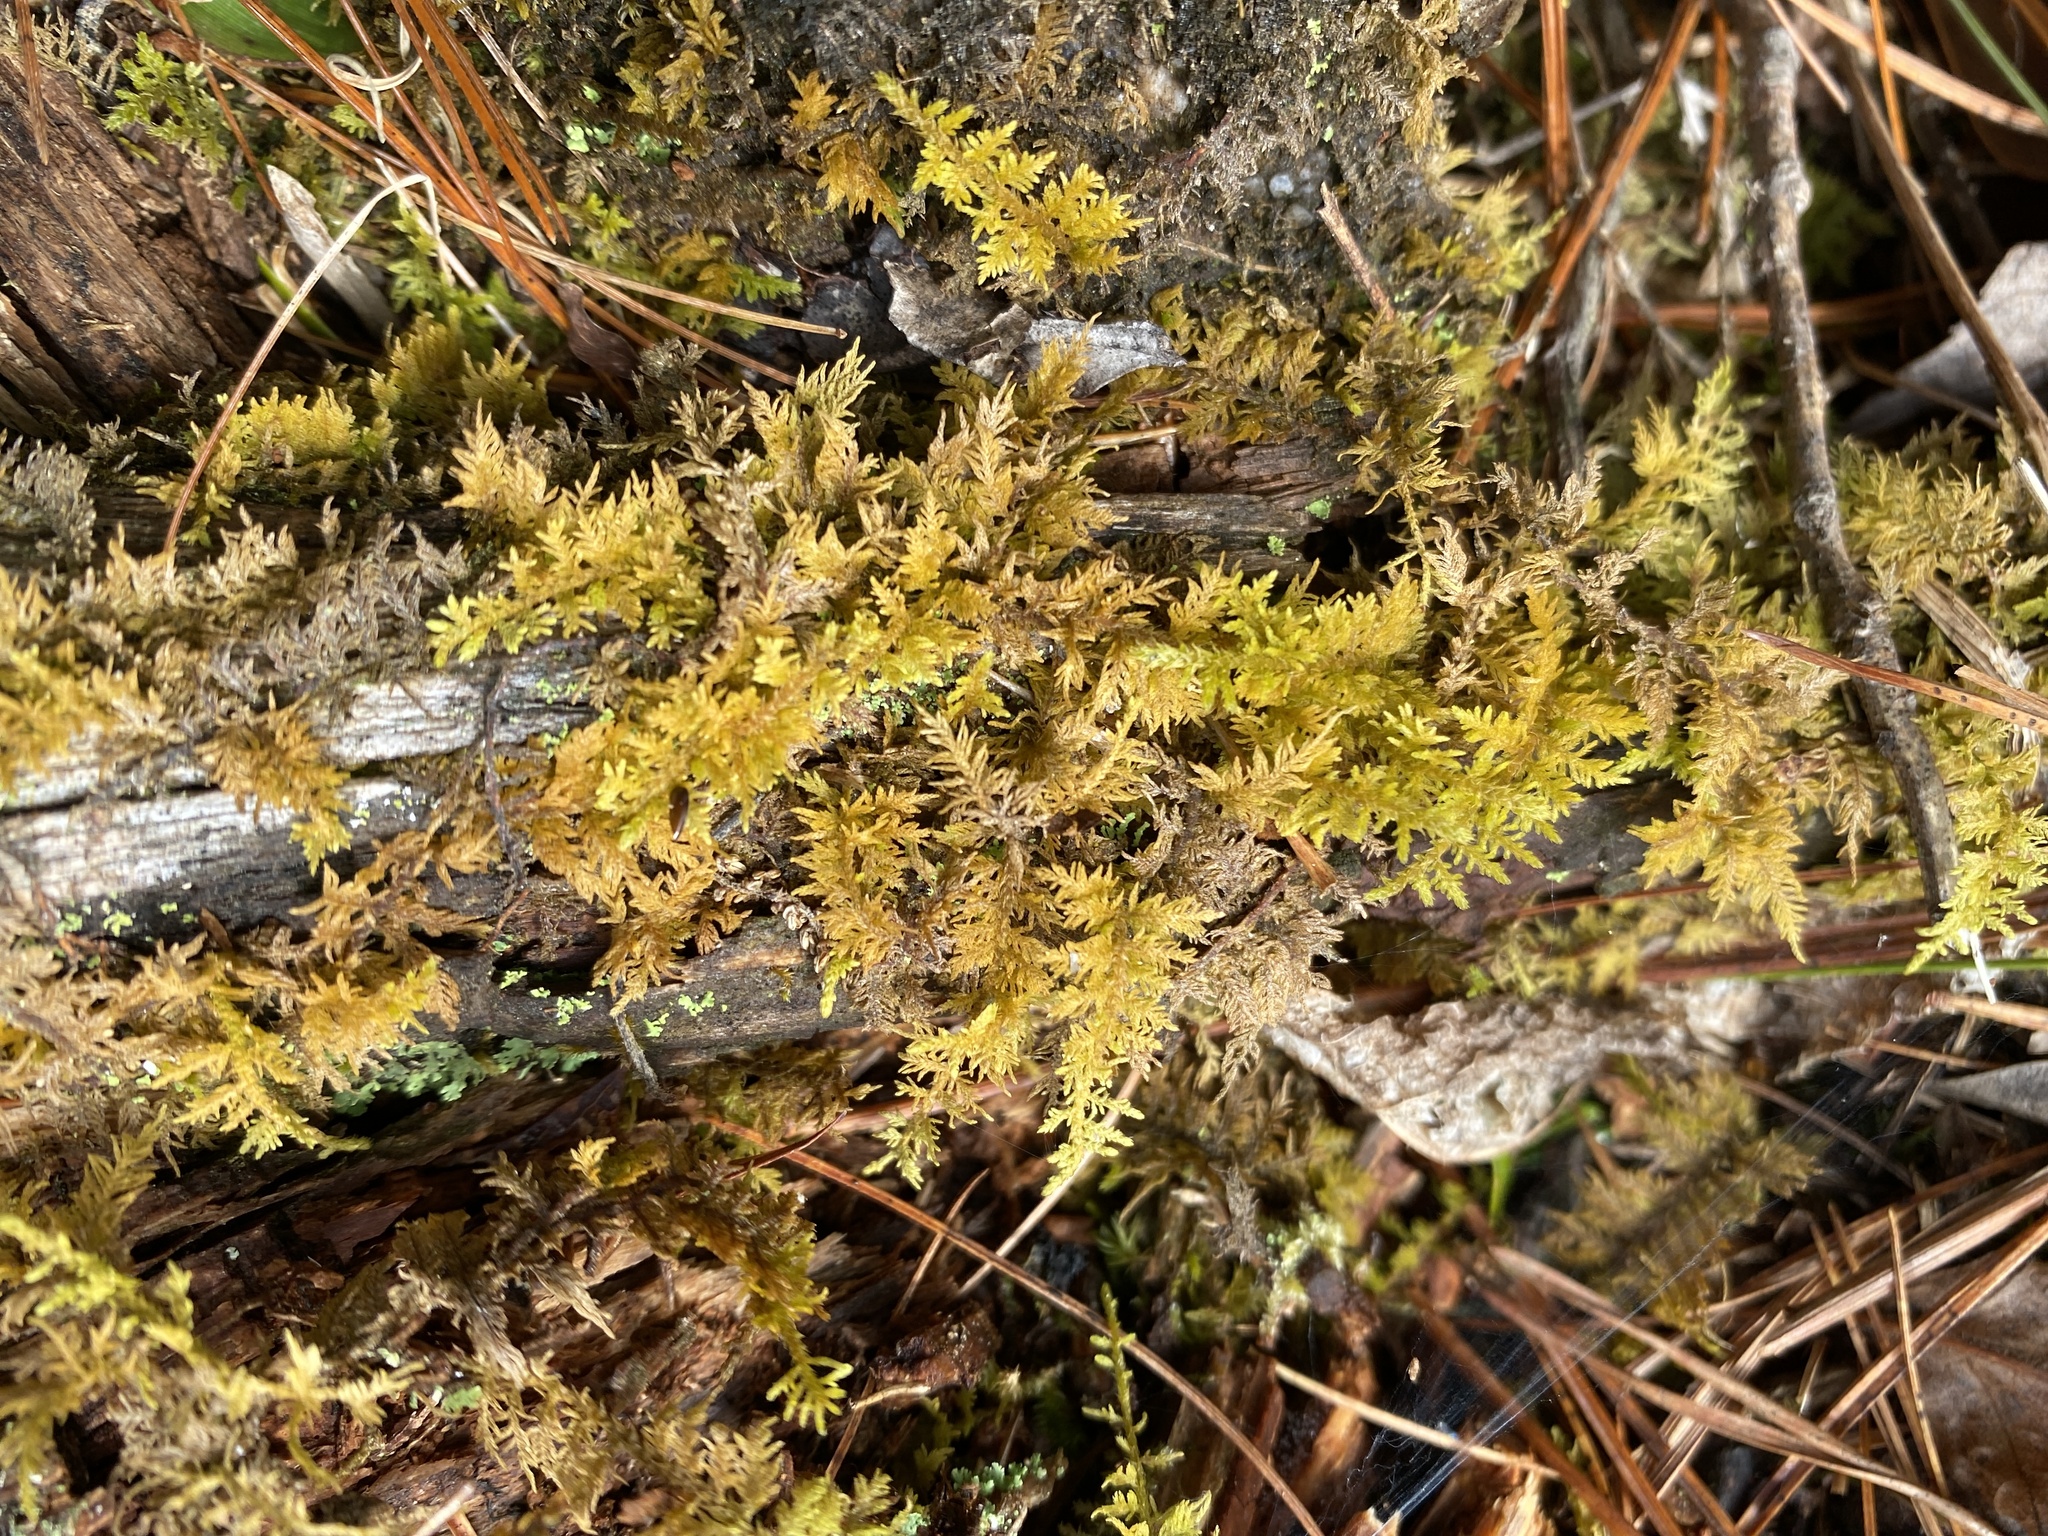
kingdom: Plantae
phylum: Bryophyta
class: Bryopsida
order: Hypnales
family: Thuidiaceae
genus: Thuidium
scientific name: Thuidium delicatulum
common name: Delicate fern moss
